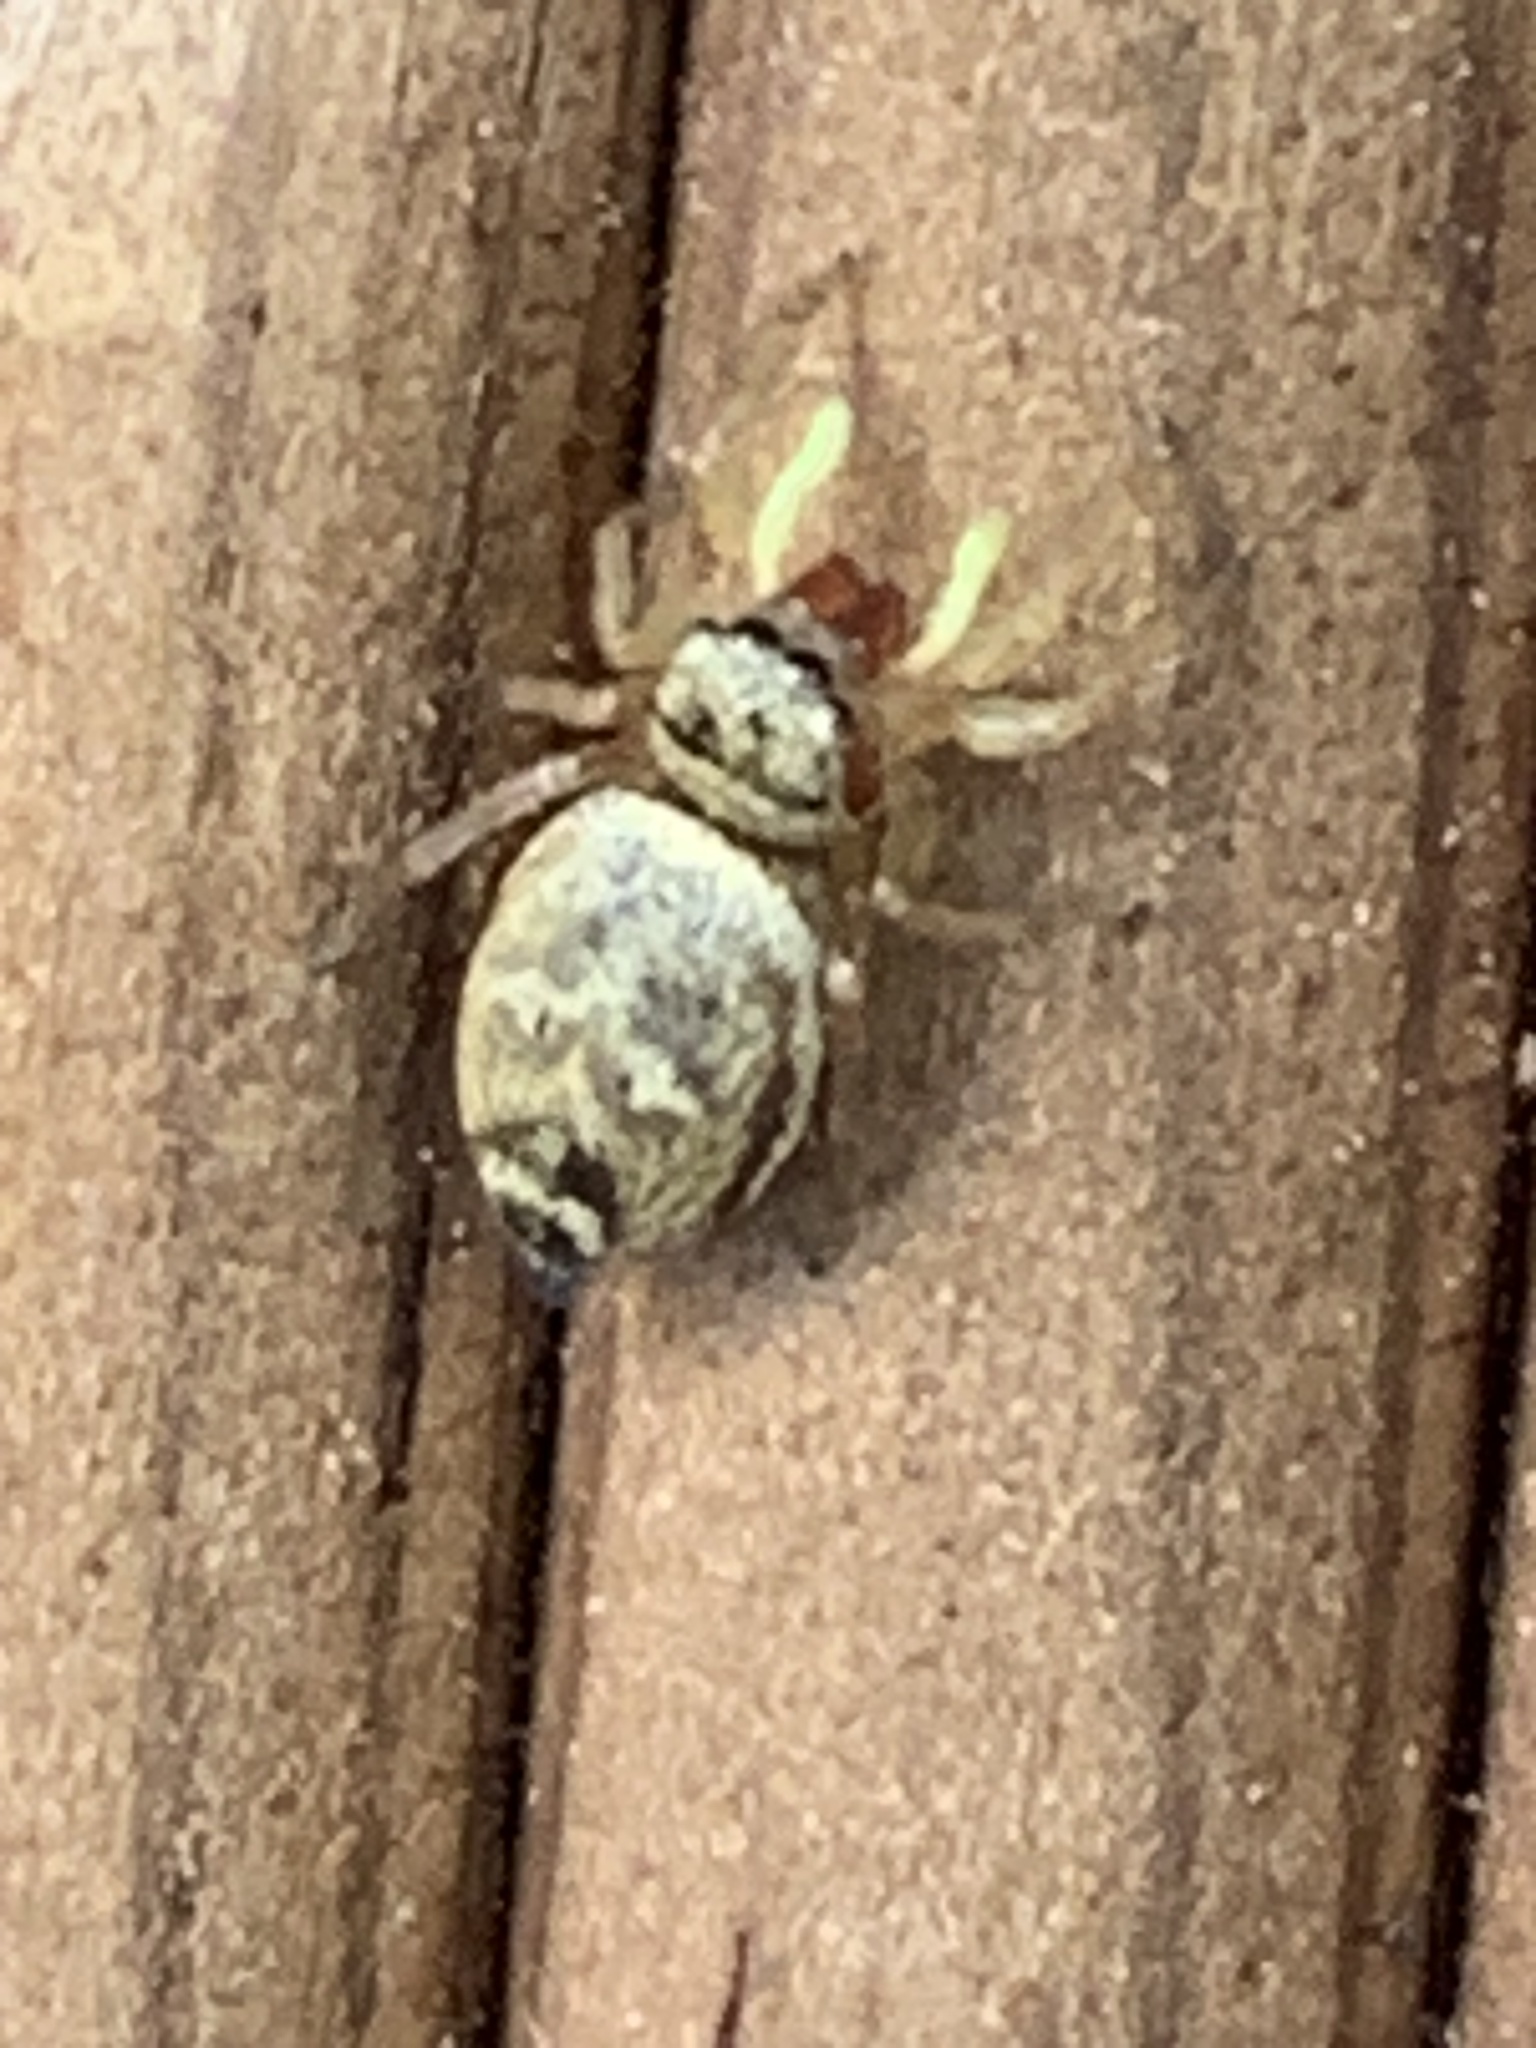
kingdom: Animalia
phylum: Arthropoda
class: Arachnida
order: Araneae
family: Salticidae
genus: Heliophanus
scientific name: Heliophanus tribulosus
